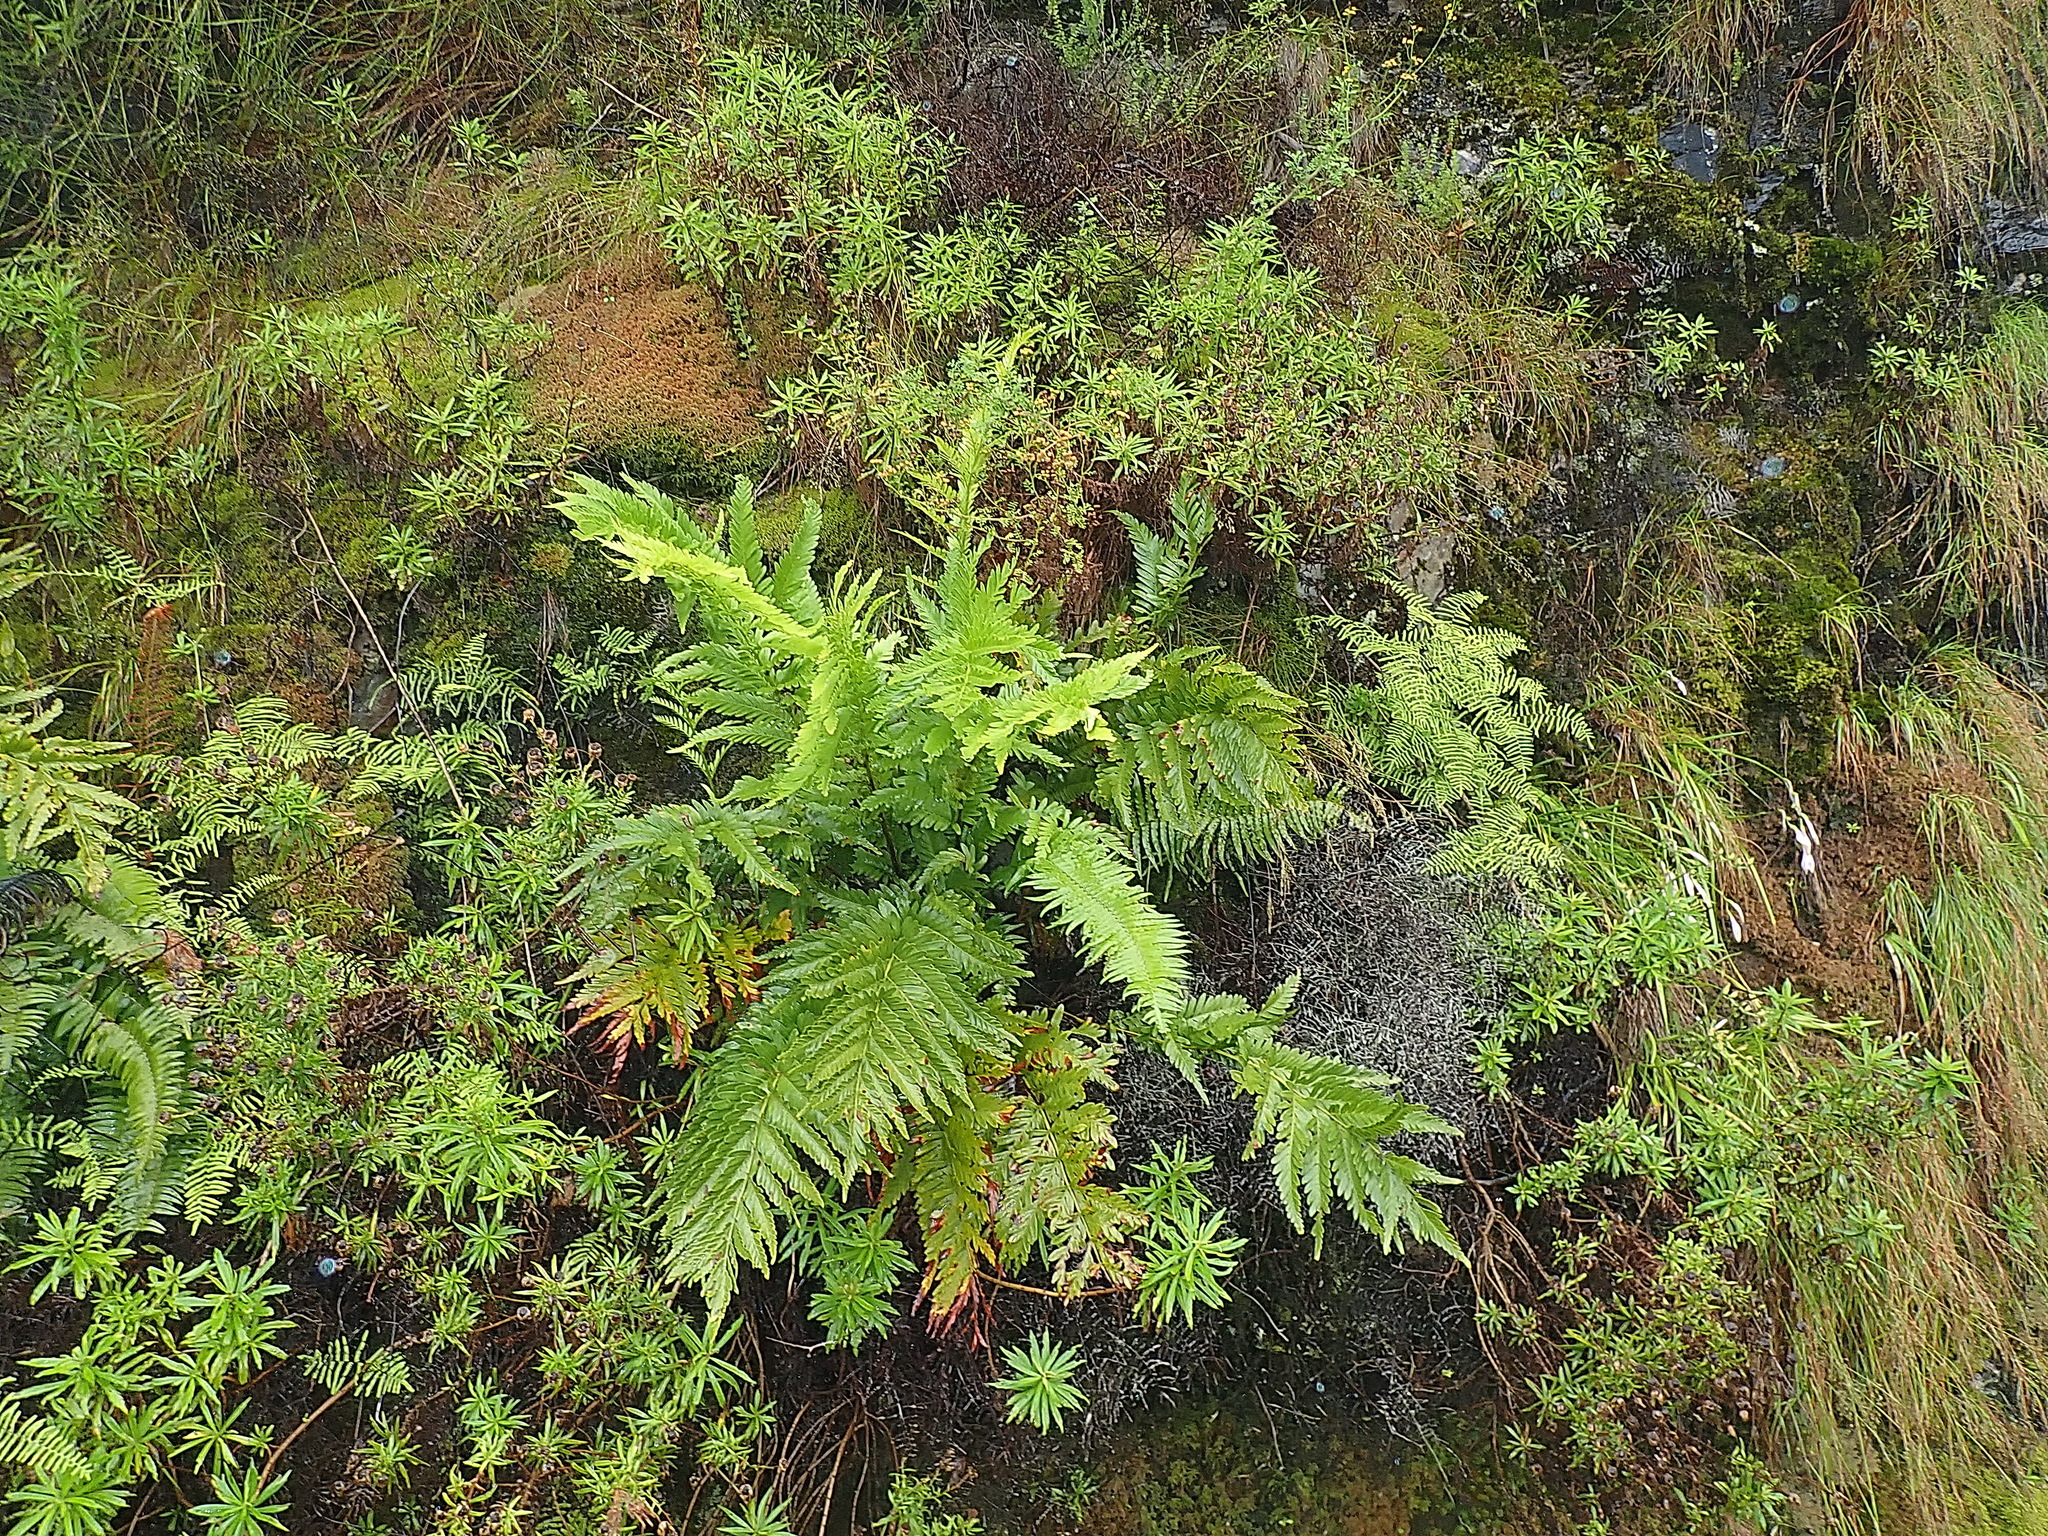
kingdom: Plantae
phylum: Tracheophyta
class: Polypodiopsida
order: Osmundales
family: Osmundaceae
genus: Todea
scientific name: Todea barbara
